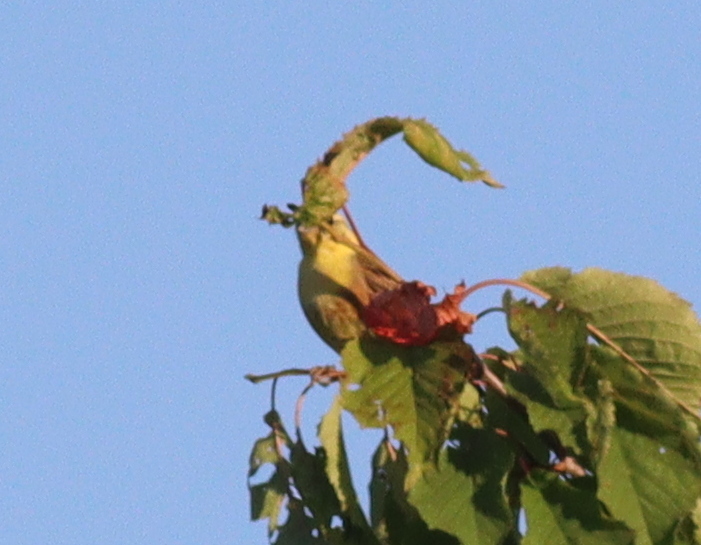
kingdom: Animalia
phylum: Chordata
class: Aves
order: Passeriformes
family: Emberizidae
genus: Emberiza
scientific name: Emberiza citrinella
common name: Yellowhammer
